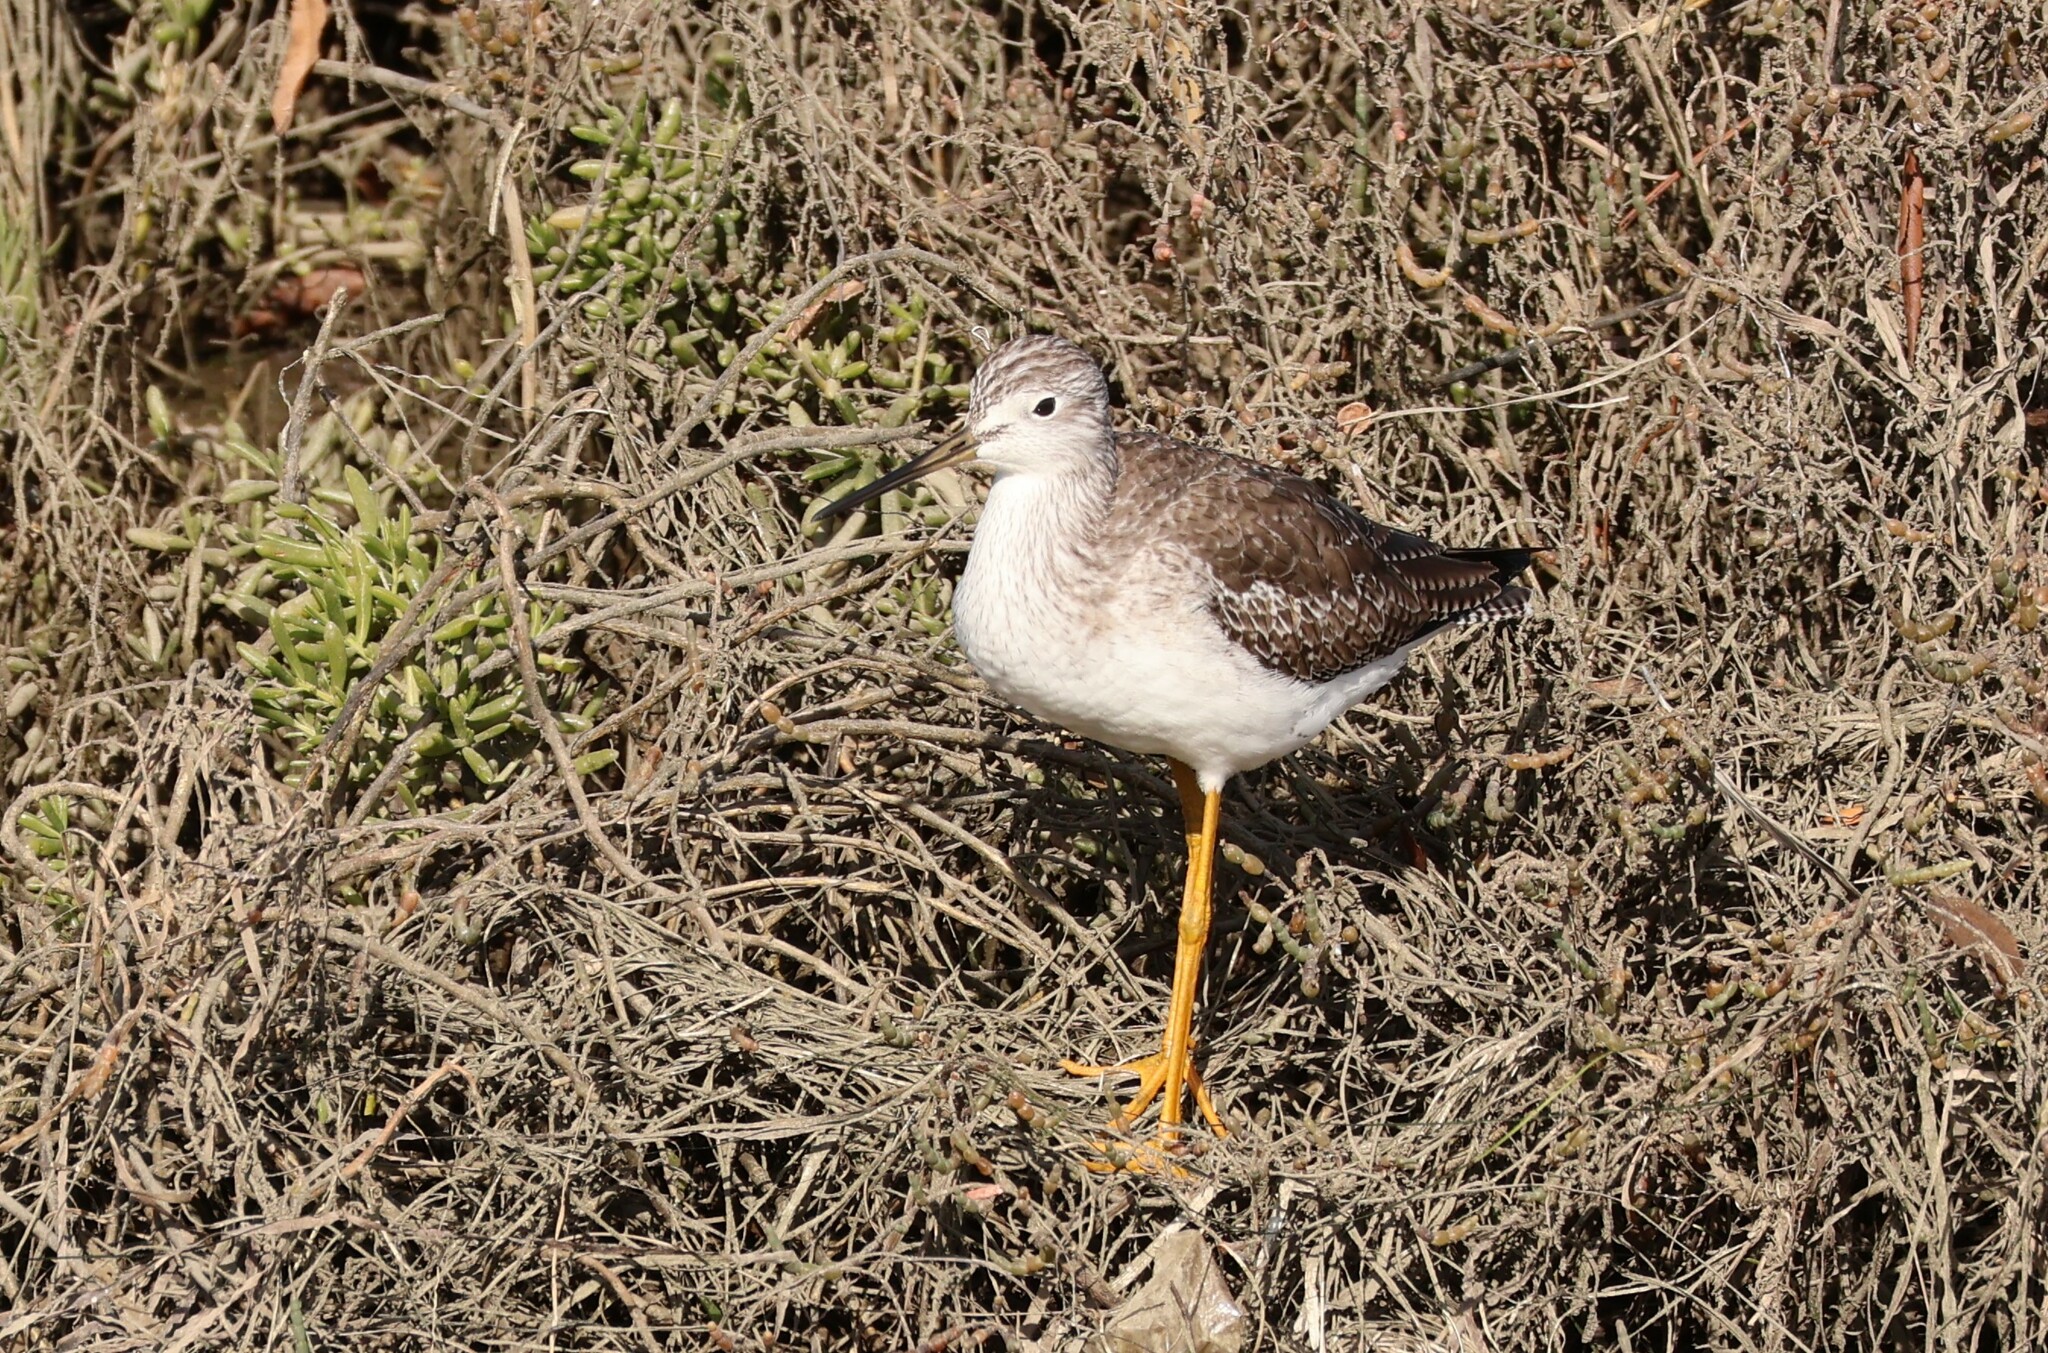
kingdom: Animalia
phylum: Chordata
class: Aves
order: Charadriiformes
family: Scolopacidae
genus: Tringa
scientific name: Tringa melanoleuca
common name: Greater yellowlegs
